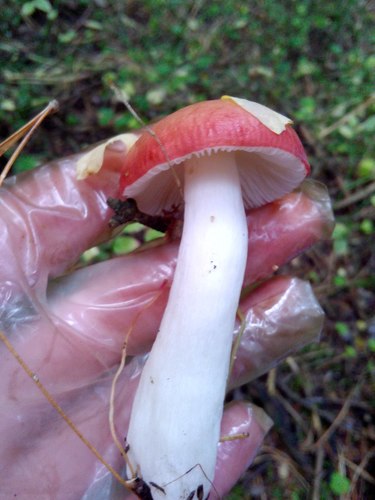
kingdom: Fungi
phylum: Basidiomycota
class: Agaricomycetes
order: Russulales
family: Russulaceae
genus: Russula
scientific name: Russula sanguinea
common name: Bloody brittlegill
